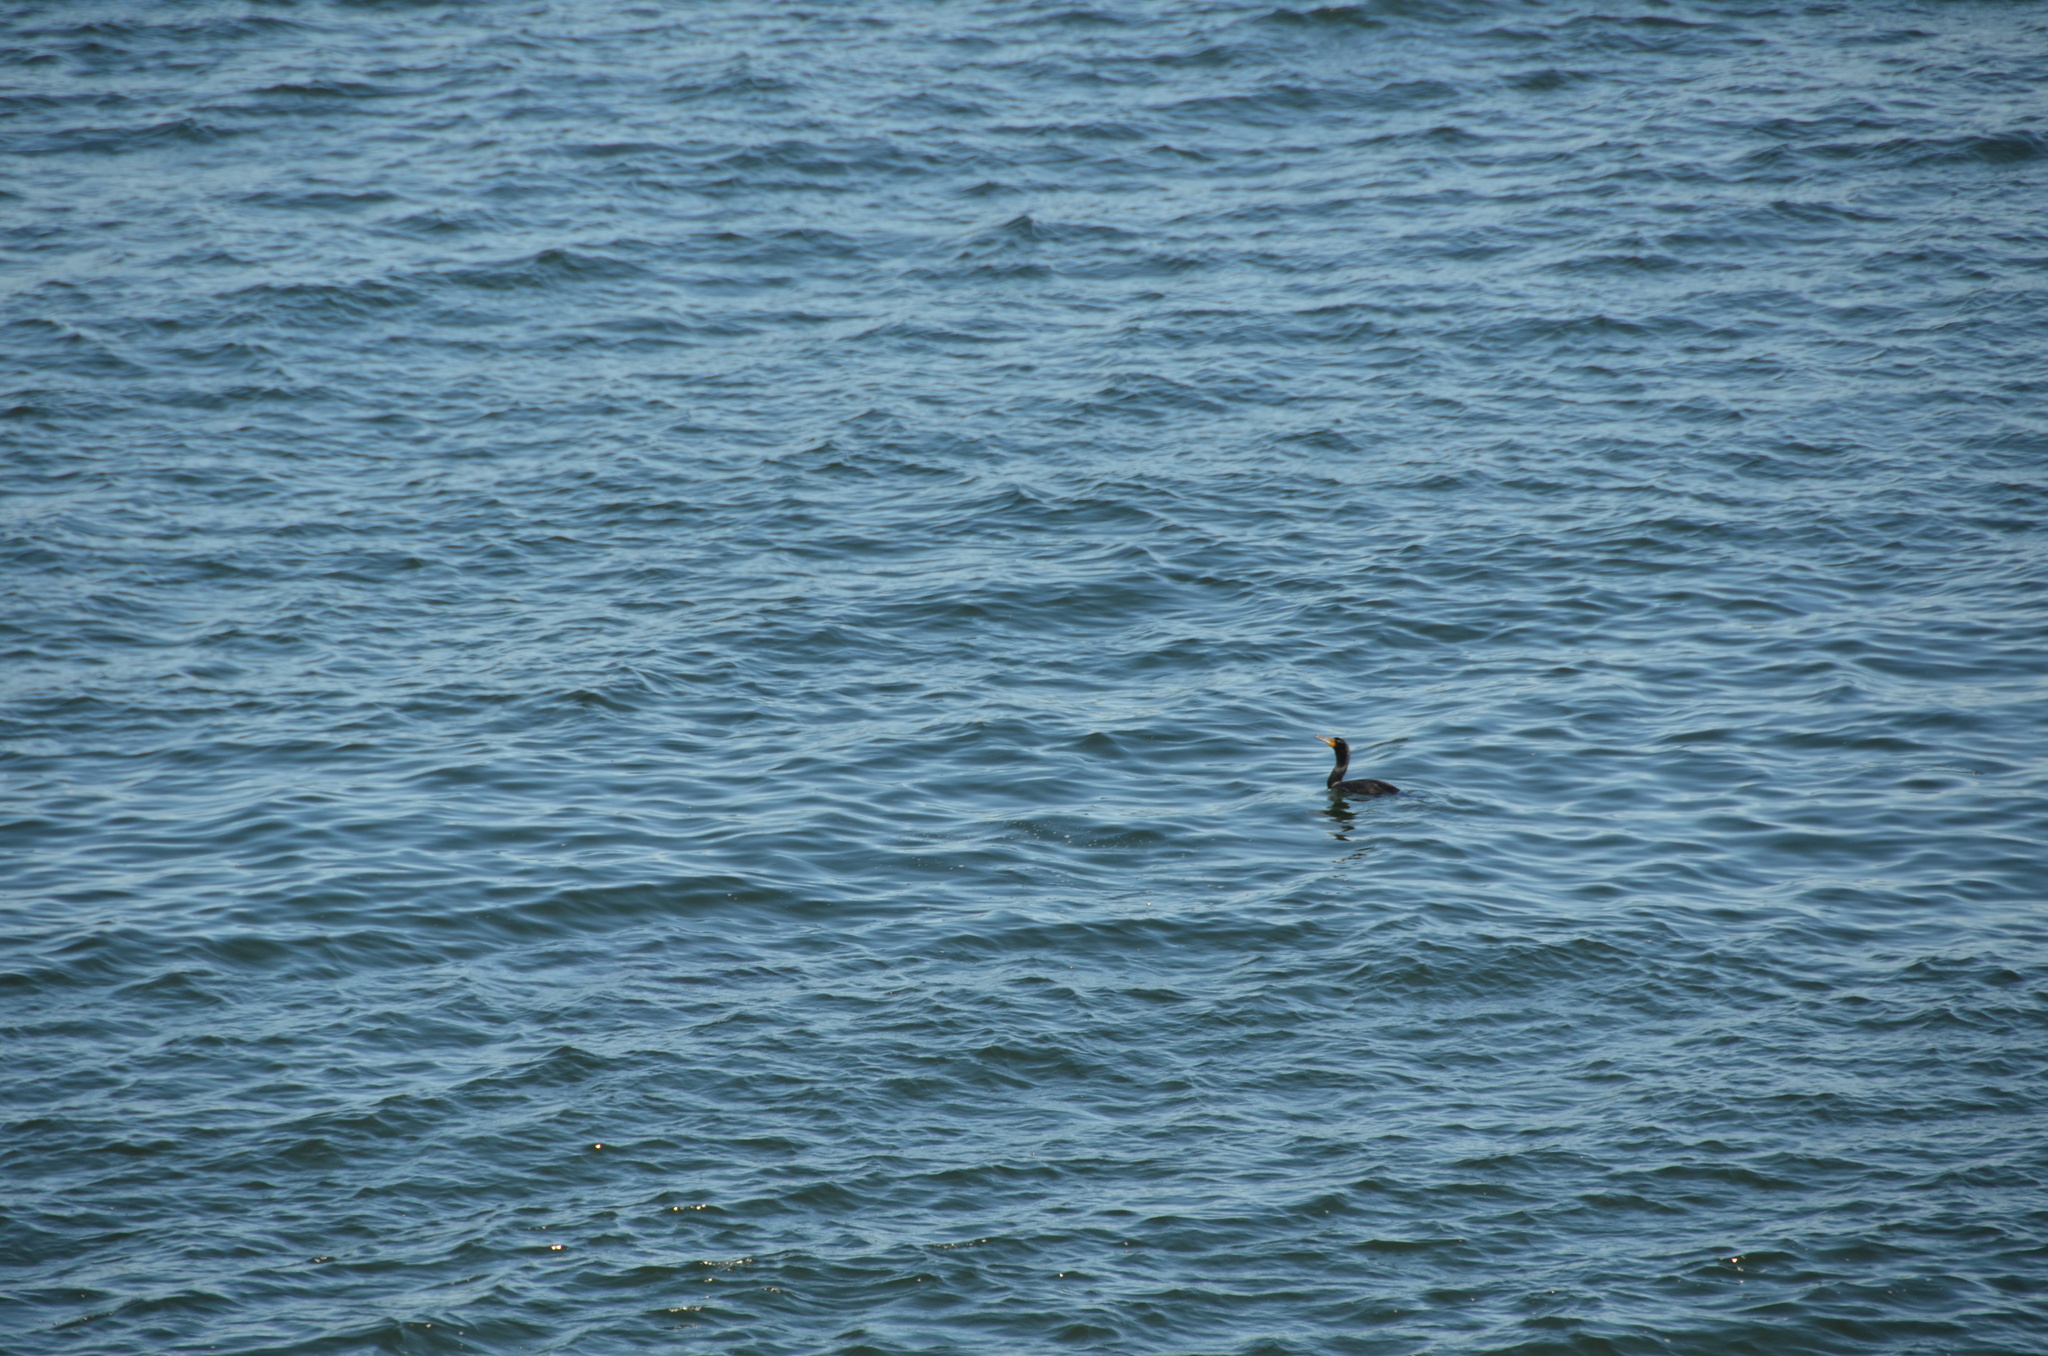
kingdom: Animalia
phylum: Chordata
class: Aves
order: Suliformes
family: Phalacrocoracidae
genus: Phalacrocorax
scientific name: Phalacrocorax auritus
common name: Double-crested cormorant
